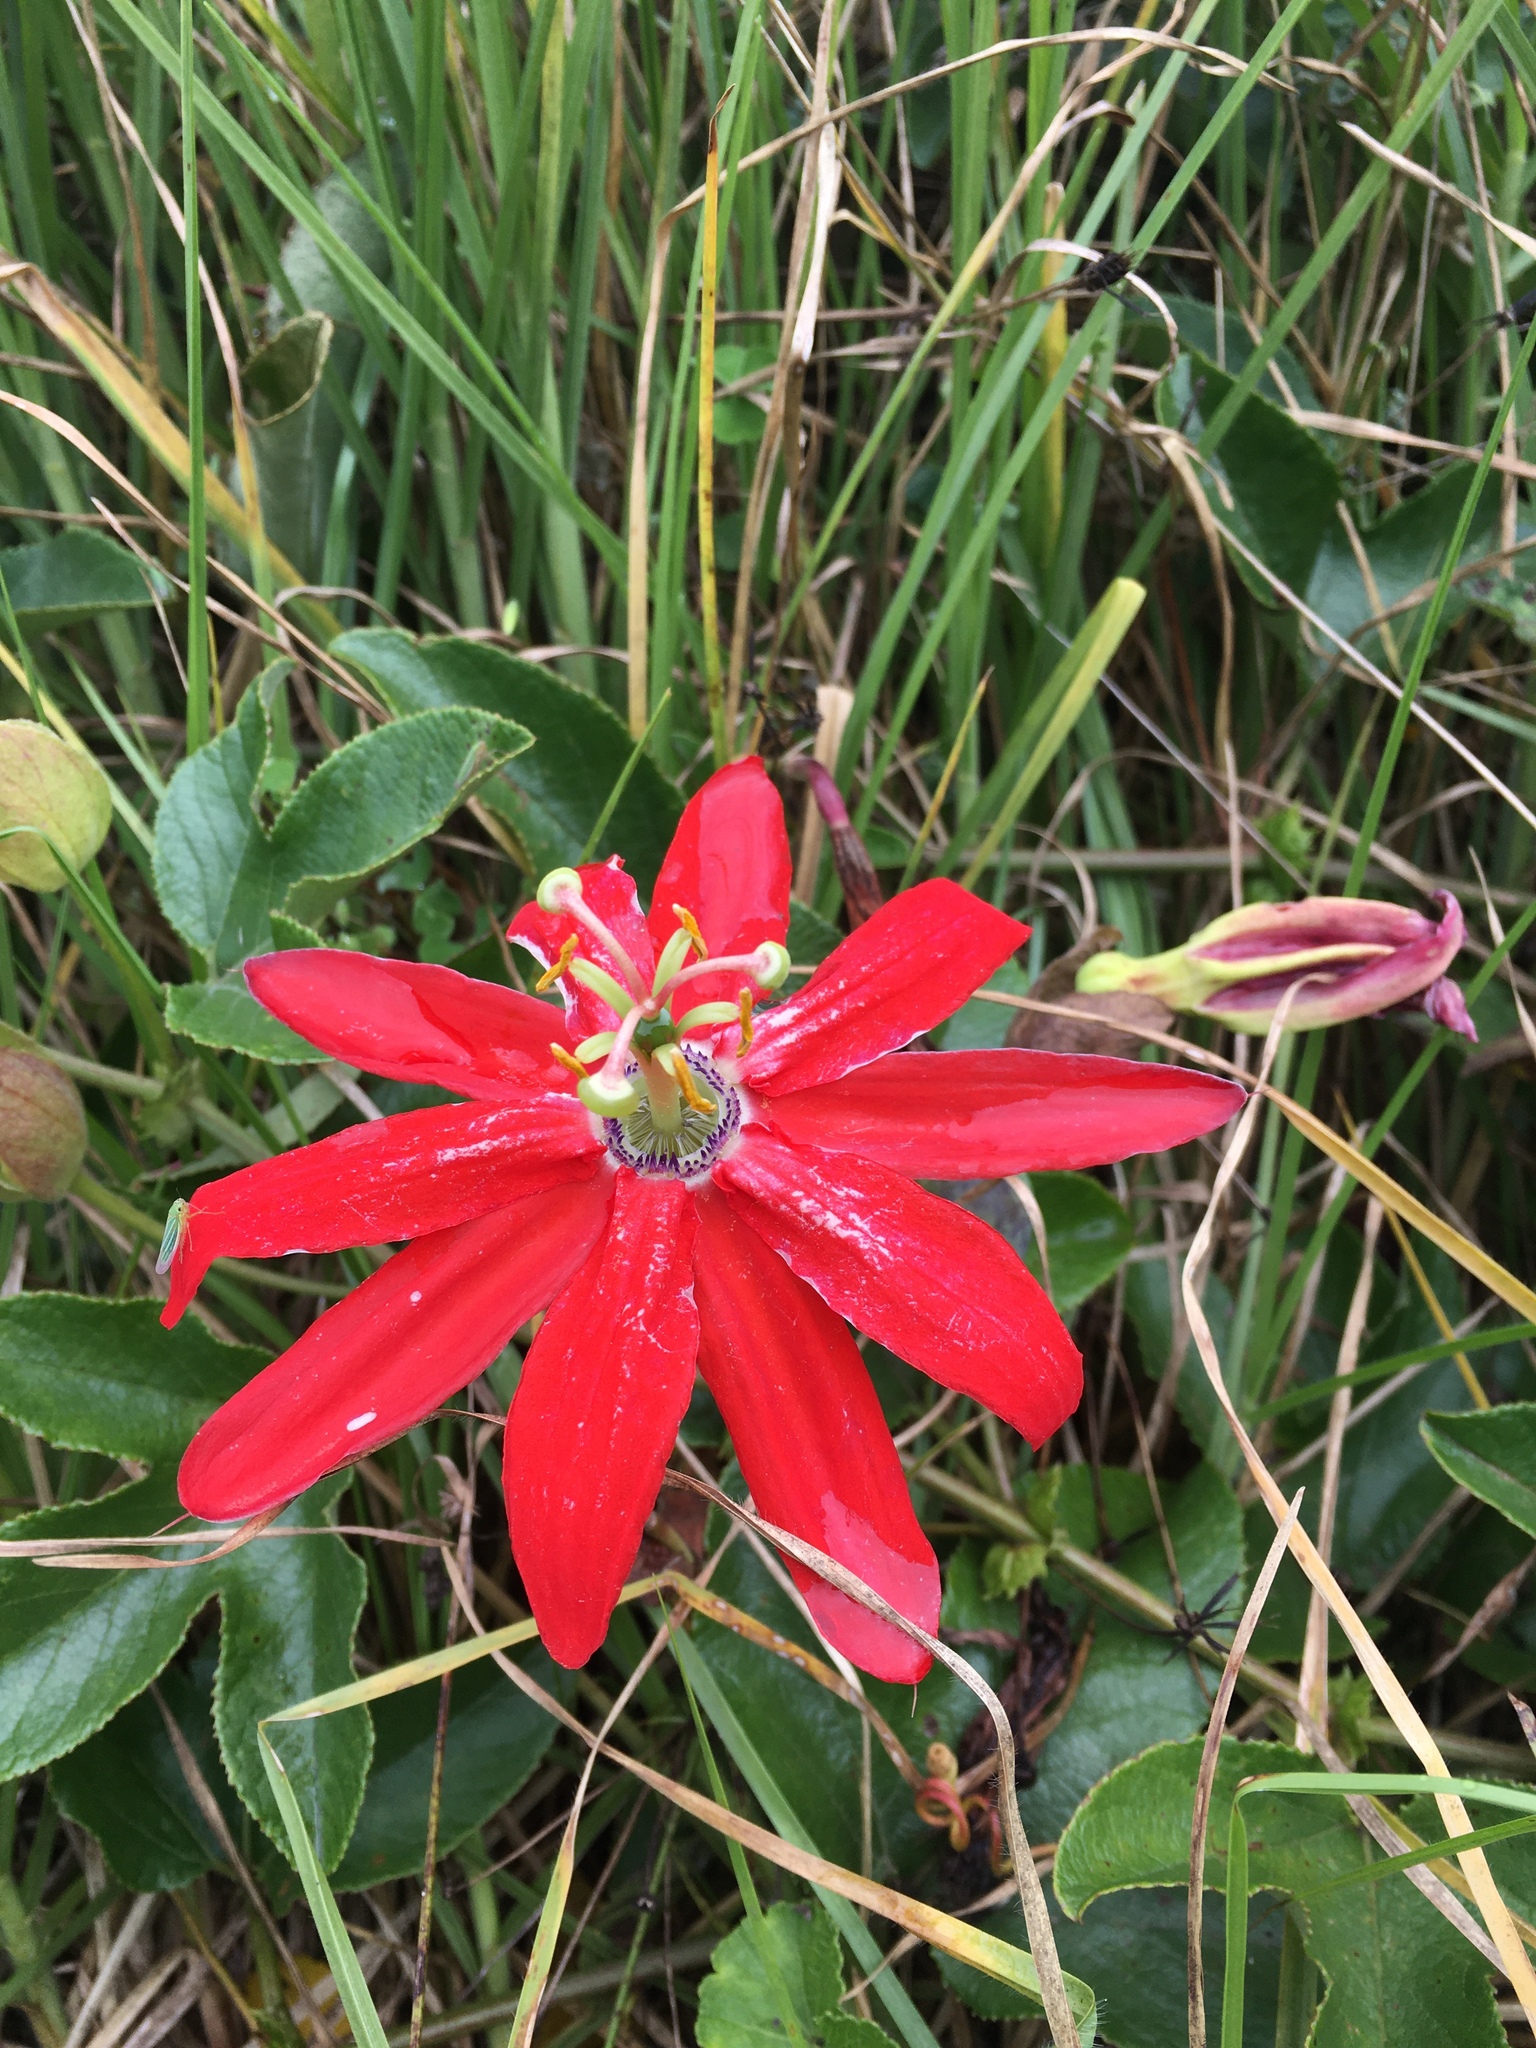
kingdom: Plantae
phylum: Tracheophyta
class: Magnoliopsida
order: Malpighiales
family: Passifloraceae
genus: Passiflora
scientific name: Passiflora manicata
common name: Red passionflower
